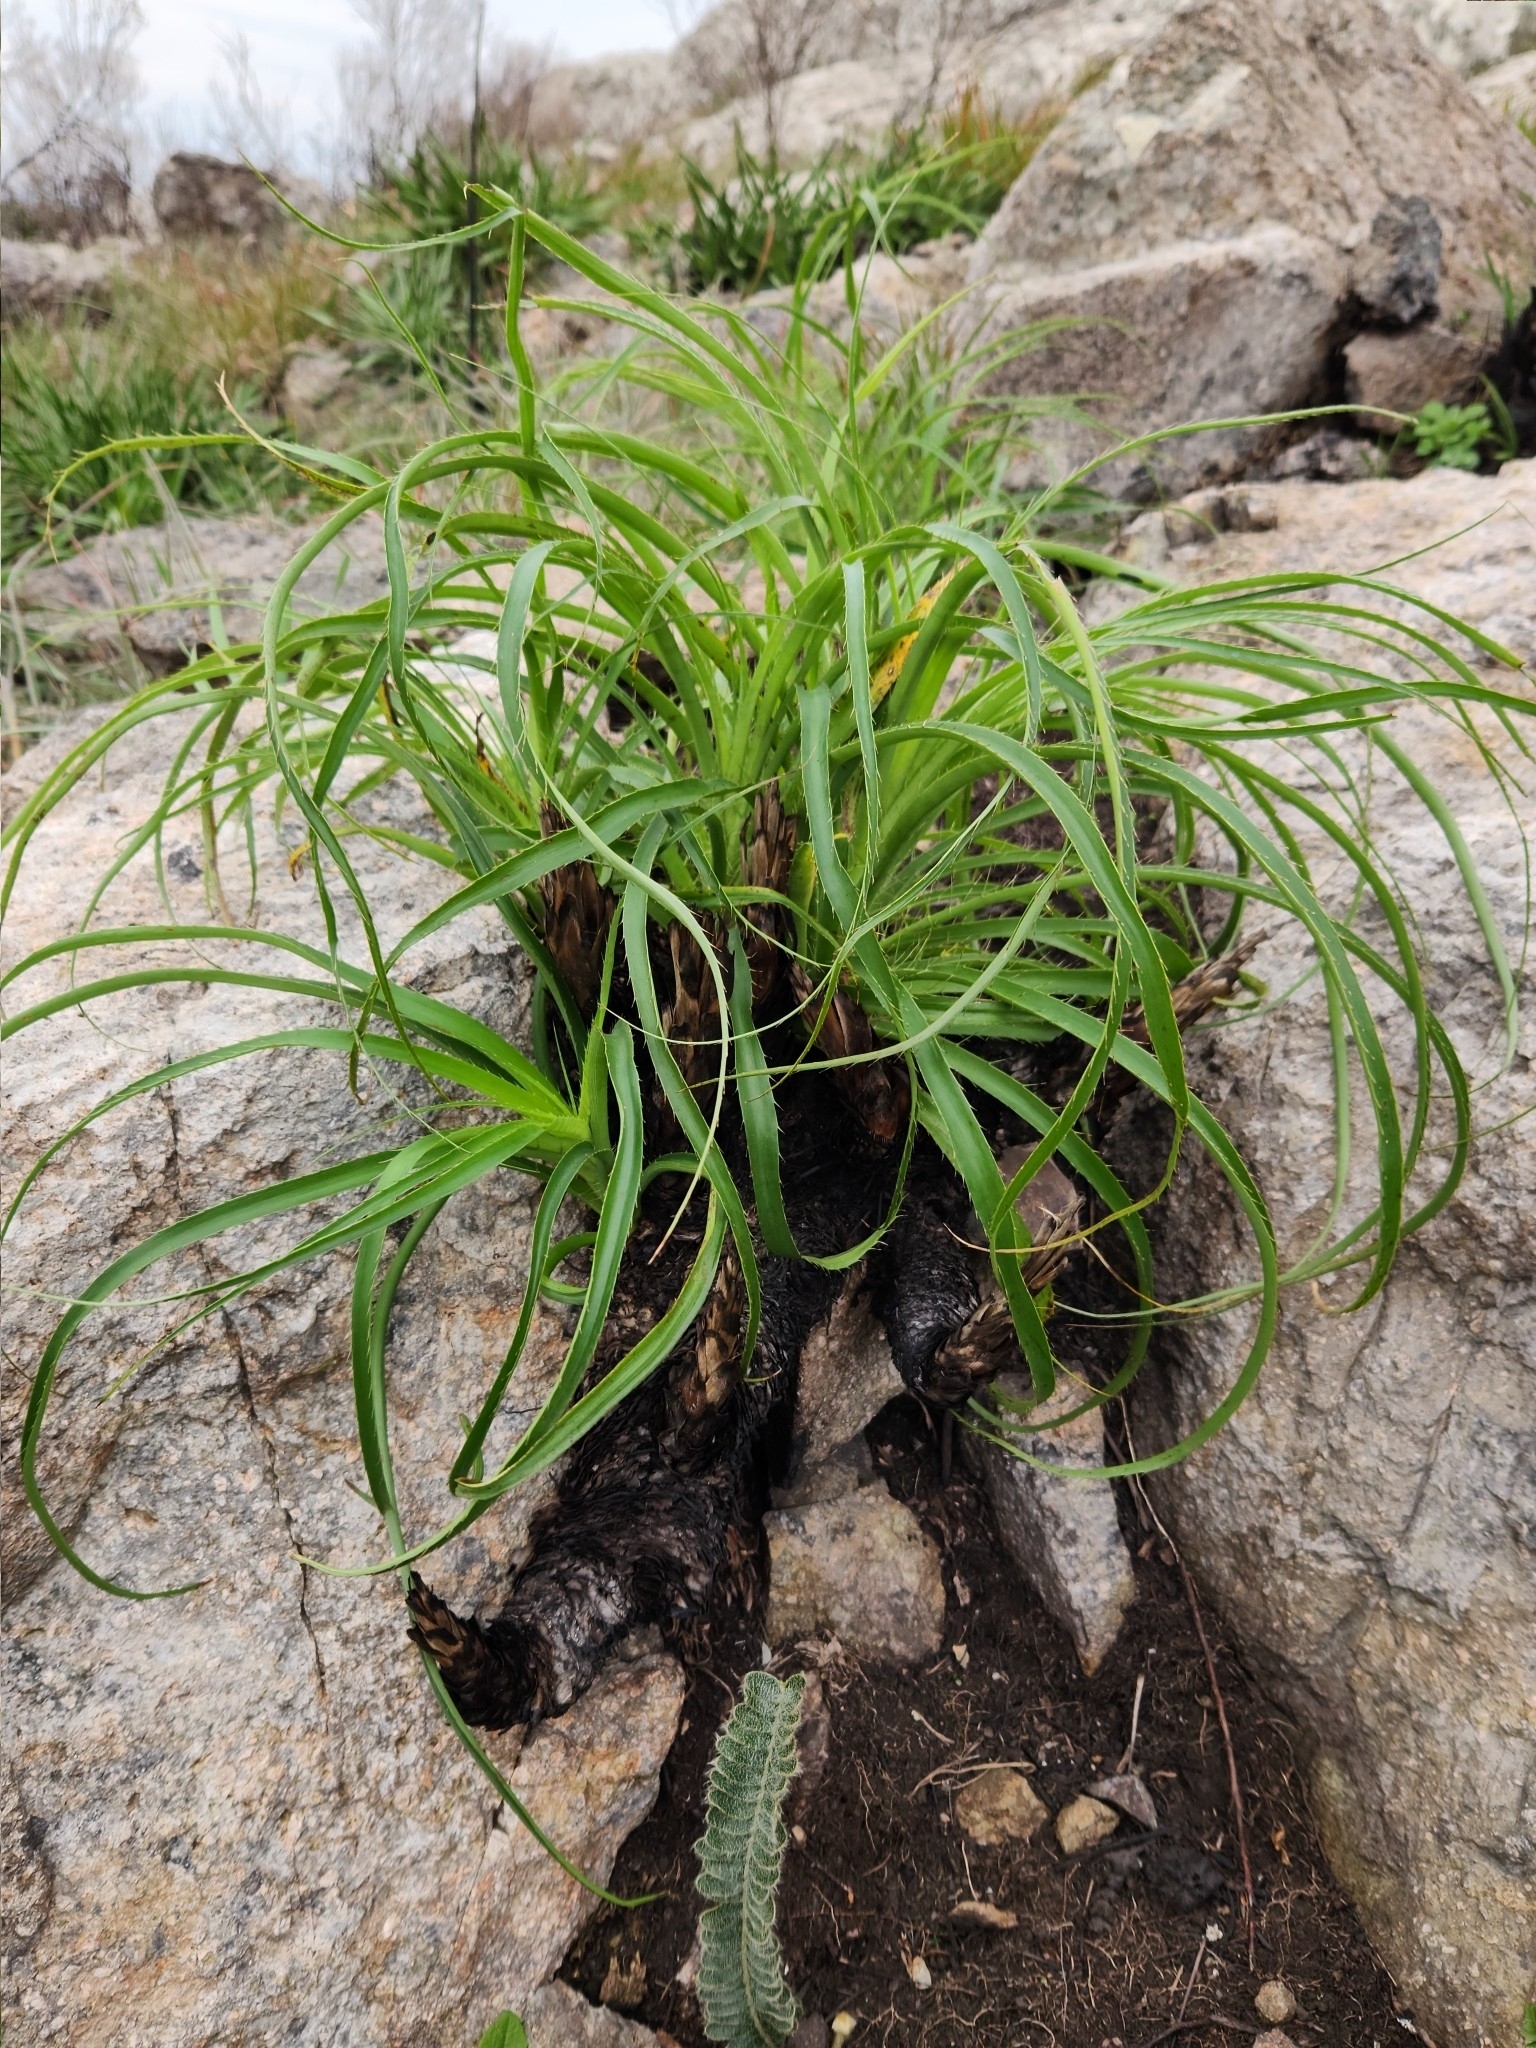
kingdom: Plantae
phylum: Tracheophyta
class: Magnoliopsida
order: Apiales
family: Apiaceae
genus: Eryngium
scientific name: Eryngium regnellii
